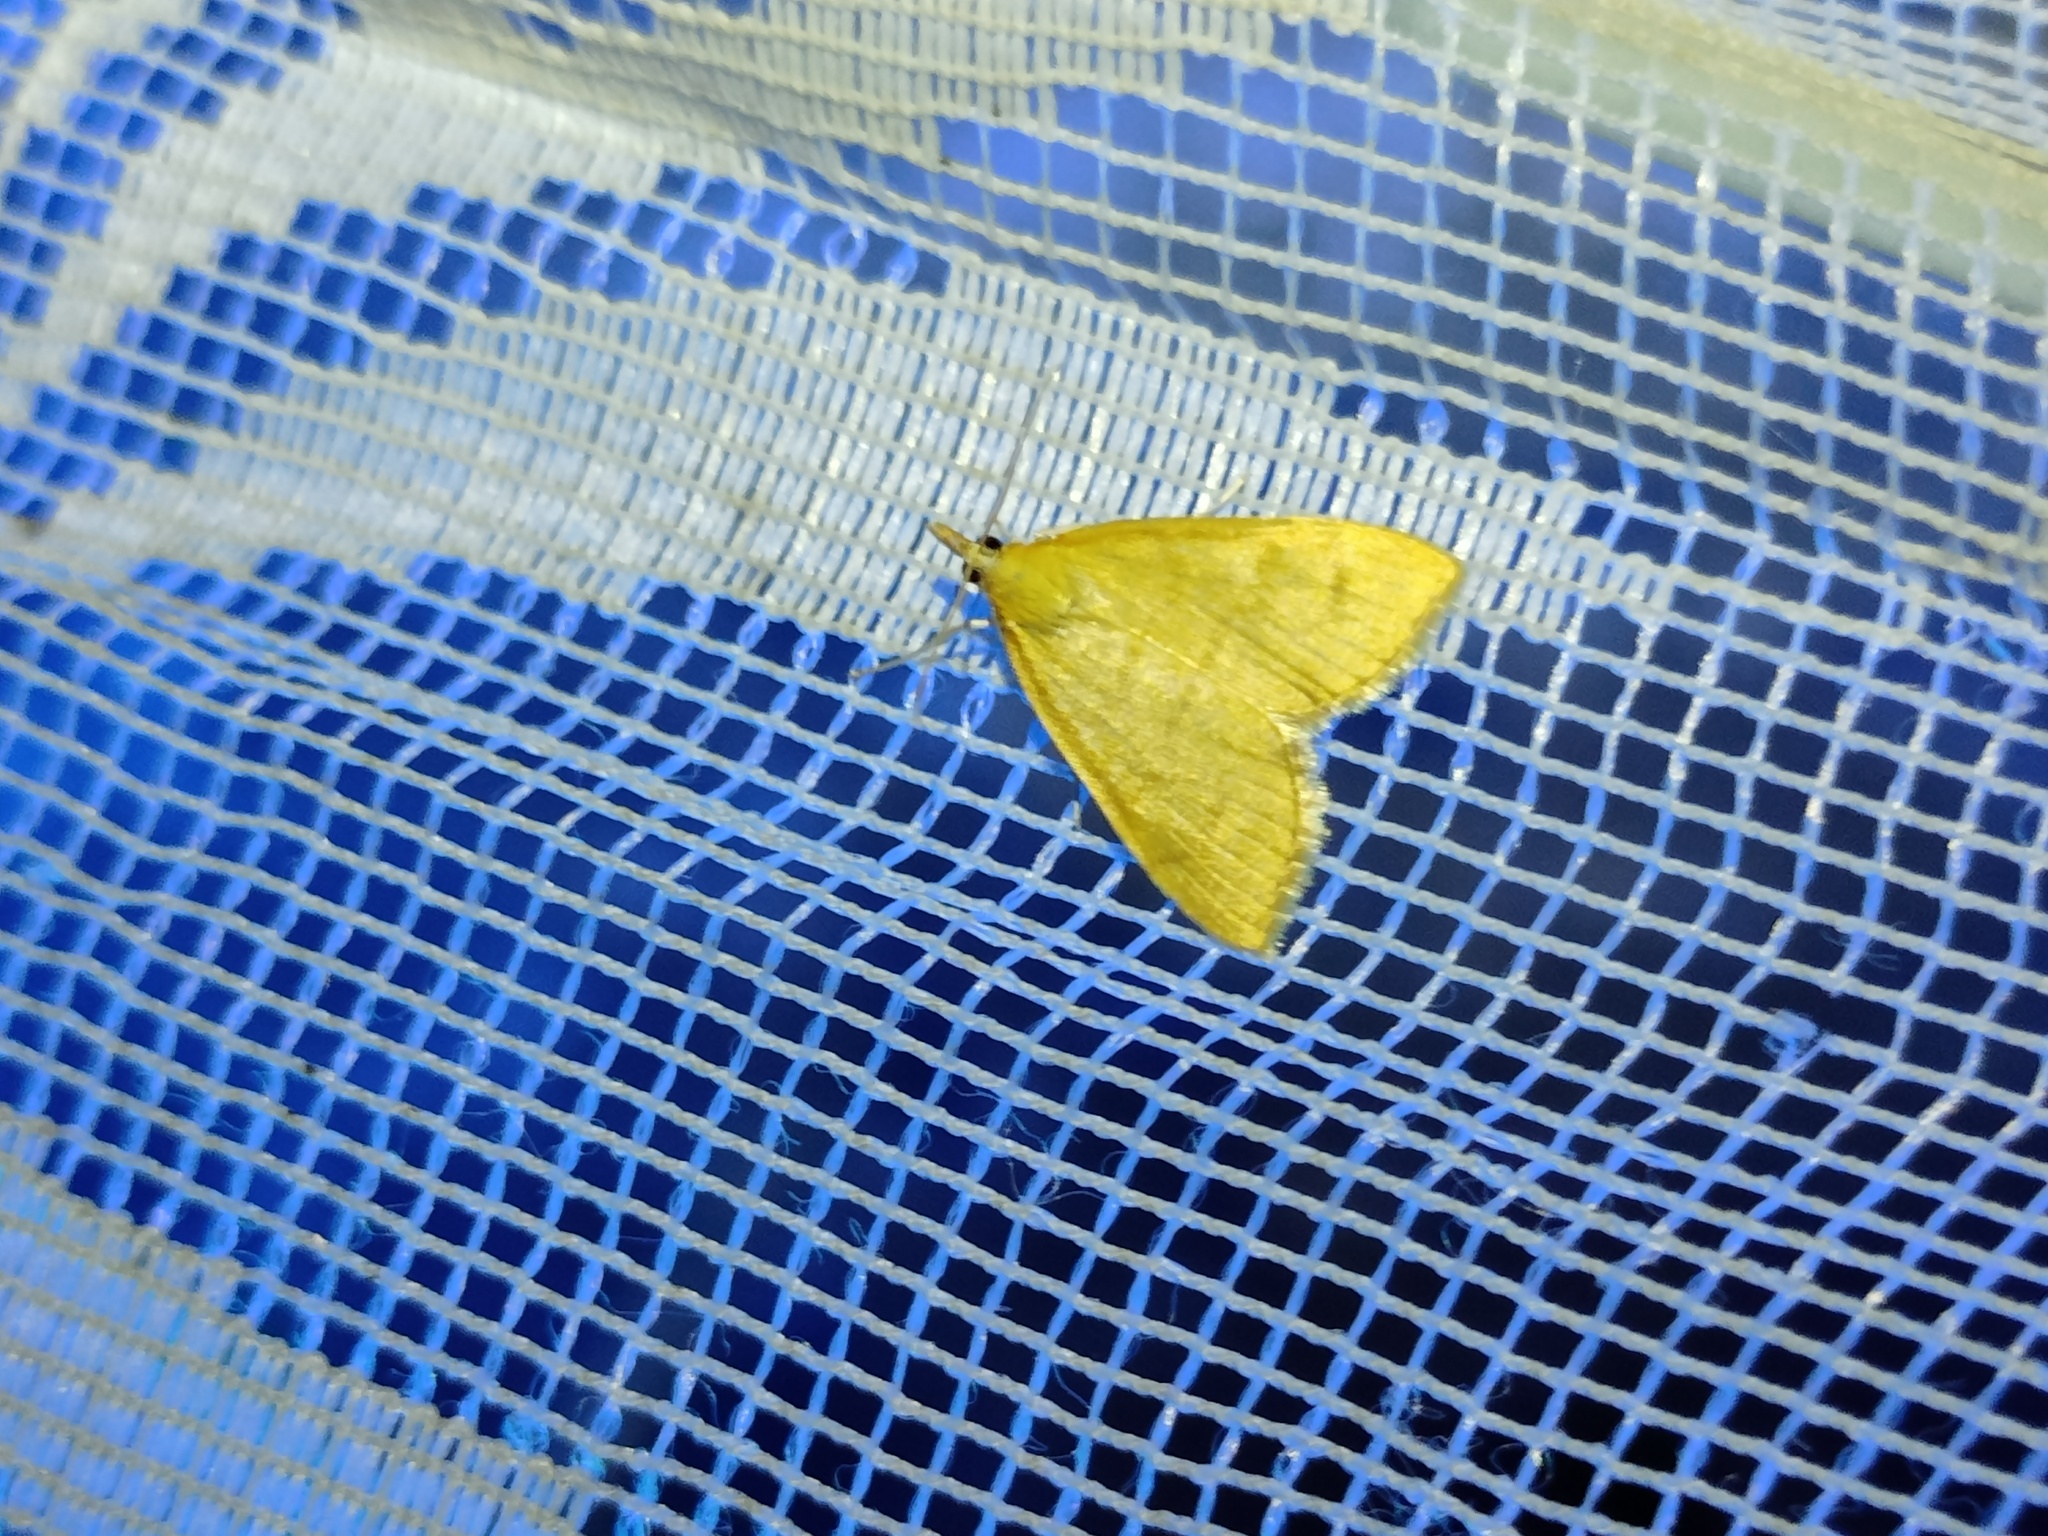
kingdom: Animalia
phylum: Arthropoda
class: Insecta
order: Lepidoptera
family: Crambidae
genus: Anania
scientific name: Anania crocealis
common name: Ochreous pearl
